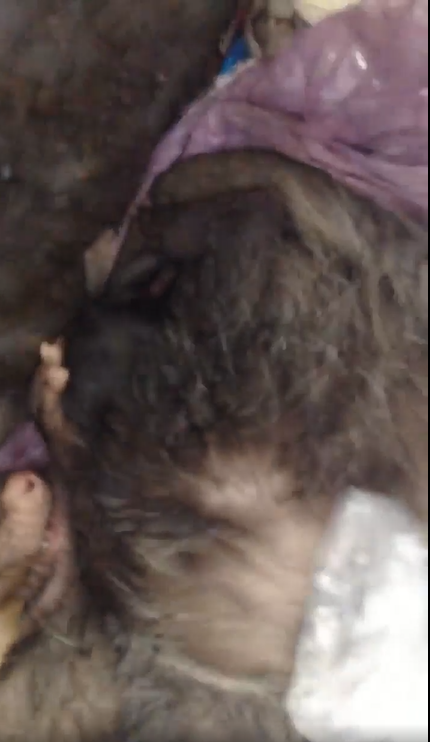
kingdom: Animalia
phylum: Chordata
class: Mammalia
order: Didelphimorphia
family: Didelphidae
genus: Didelphis
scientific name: Didelphis virginiana
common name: Virginia opossum
